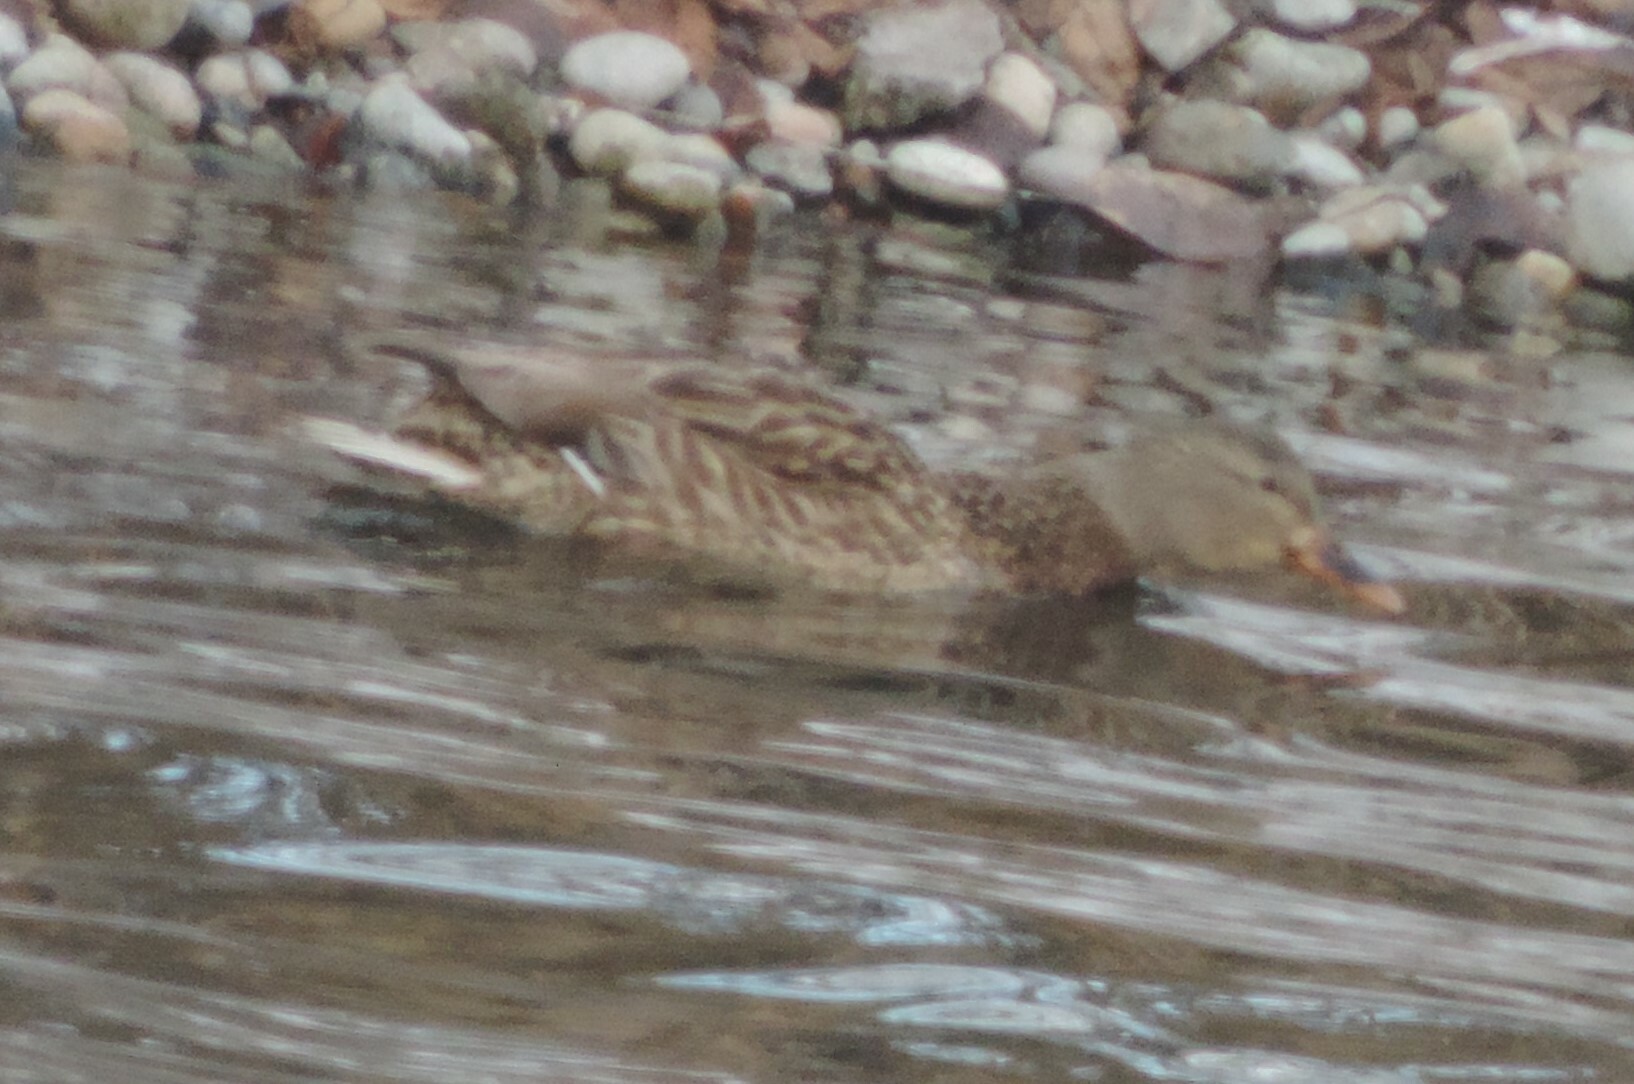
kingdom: Animalia
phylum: Chordata
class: Aves
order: Anseriformes
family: Anatidae
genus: Anas
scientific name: Anas platyrhynchos
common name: Mallard
